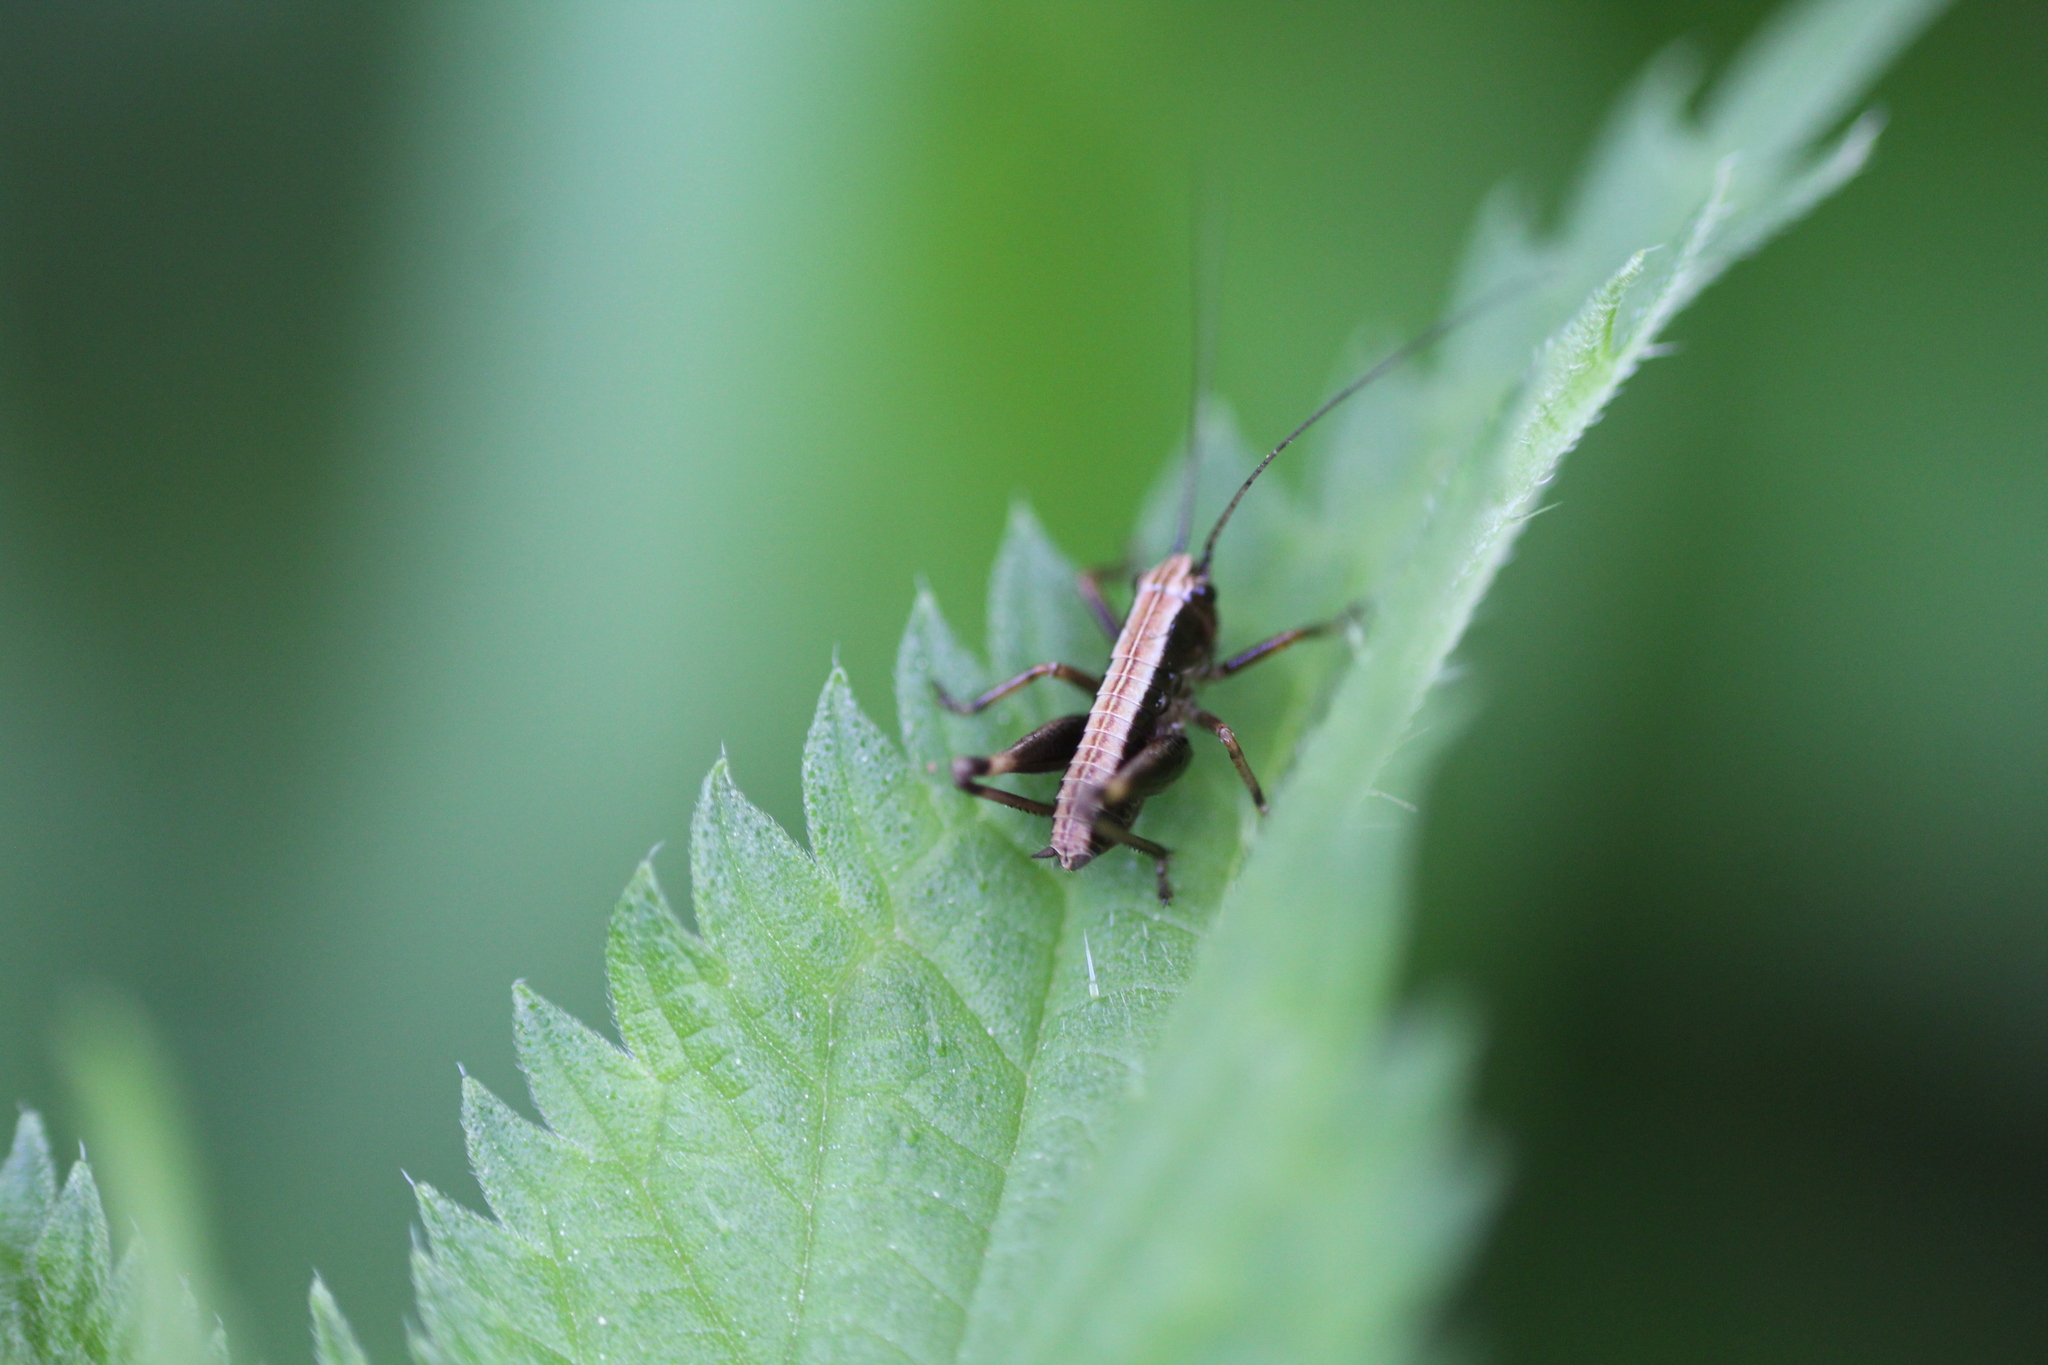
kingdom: Animalia
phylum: Arthropoda
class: Insecta
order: Orthoptera
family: Tettigoniidae
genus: Pholidoptera
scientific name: Pholidoptera griseoaptera
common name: Dark bush-cricket
